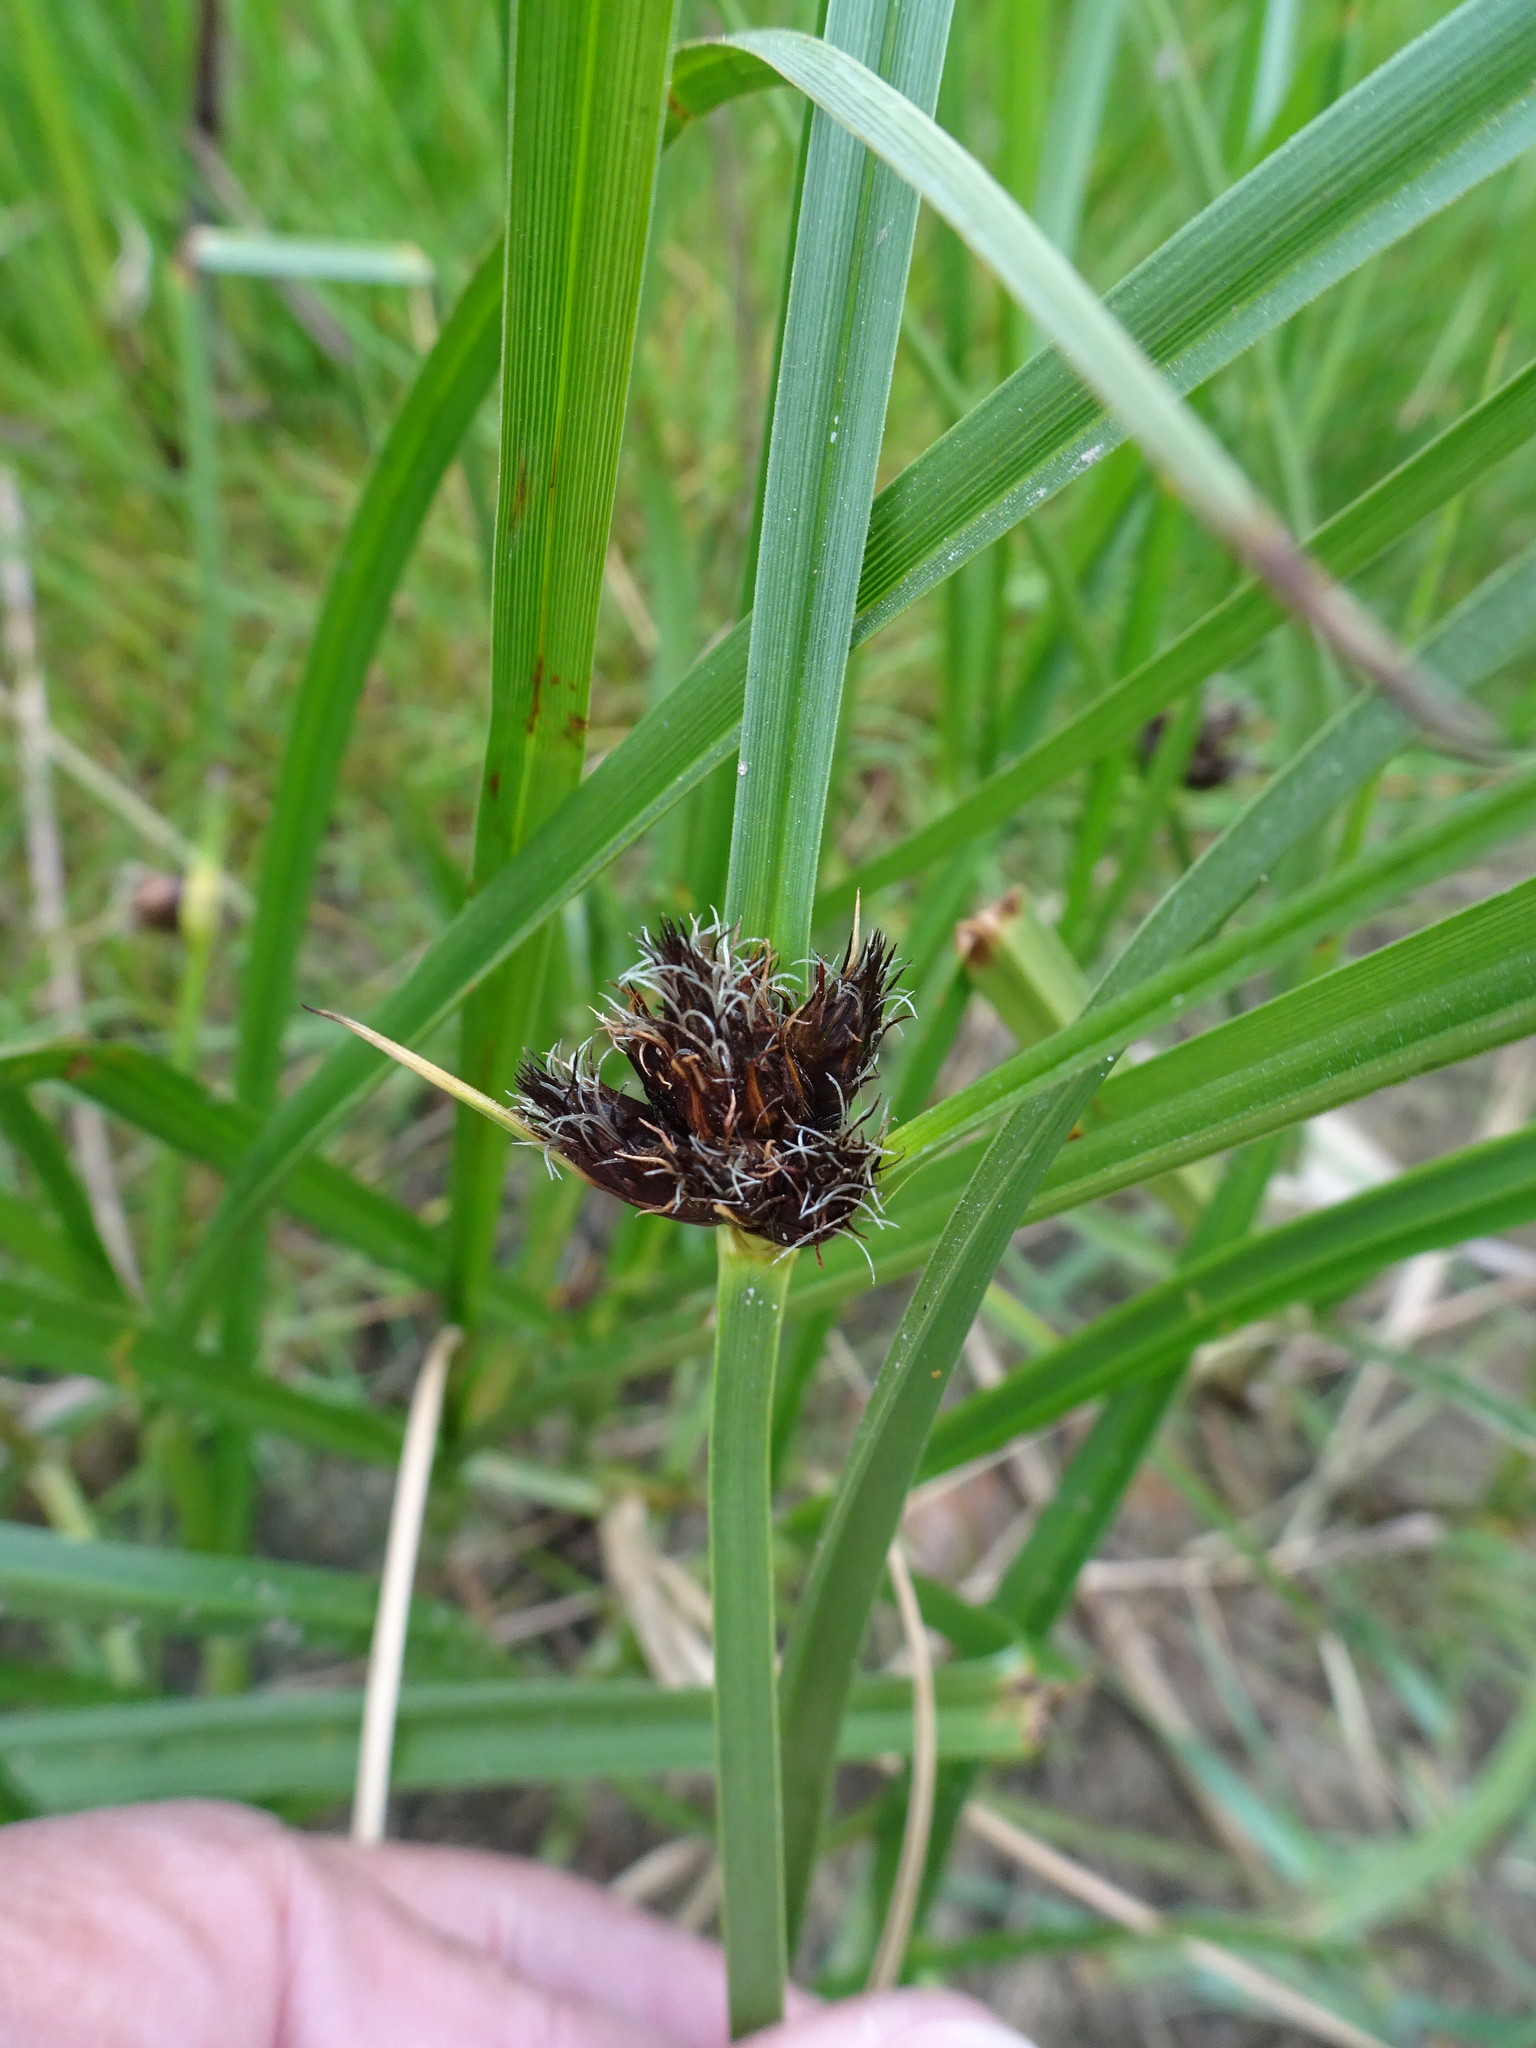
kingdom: Plantae
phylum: Tracheophyta
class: Liliopsida
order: Poales
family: Cyperaceae
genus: Bolboschoenus
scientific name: Bolboschoenus maritimus
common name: Sea club-rush
